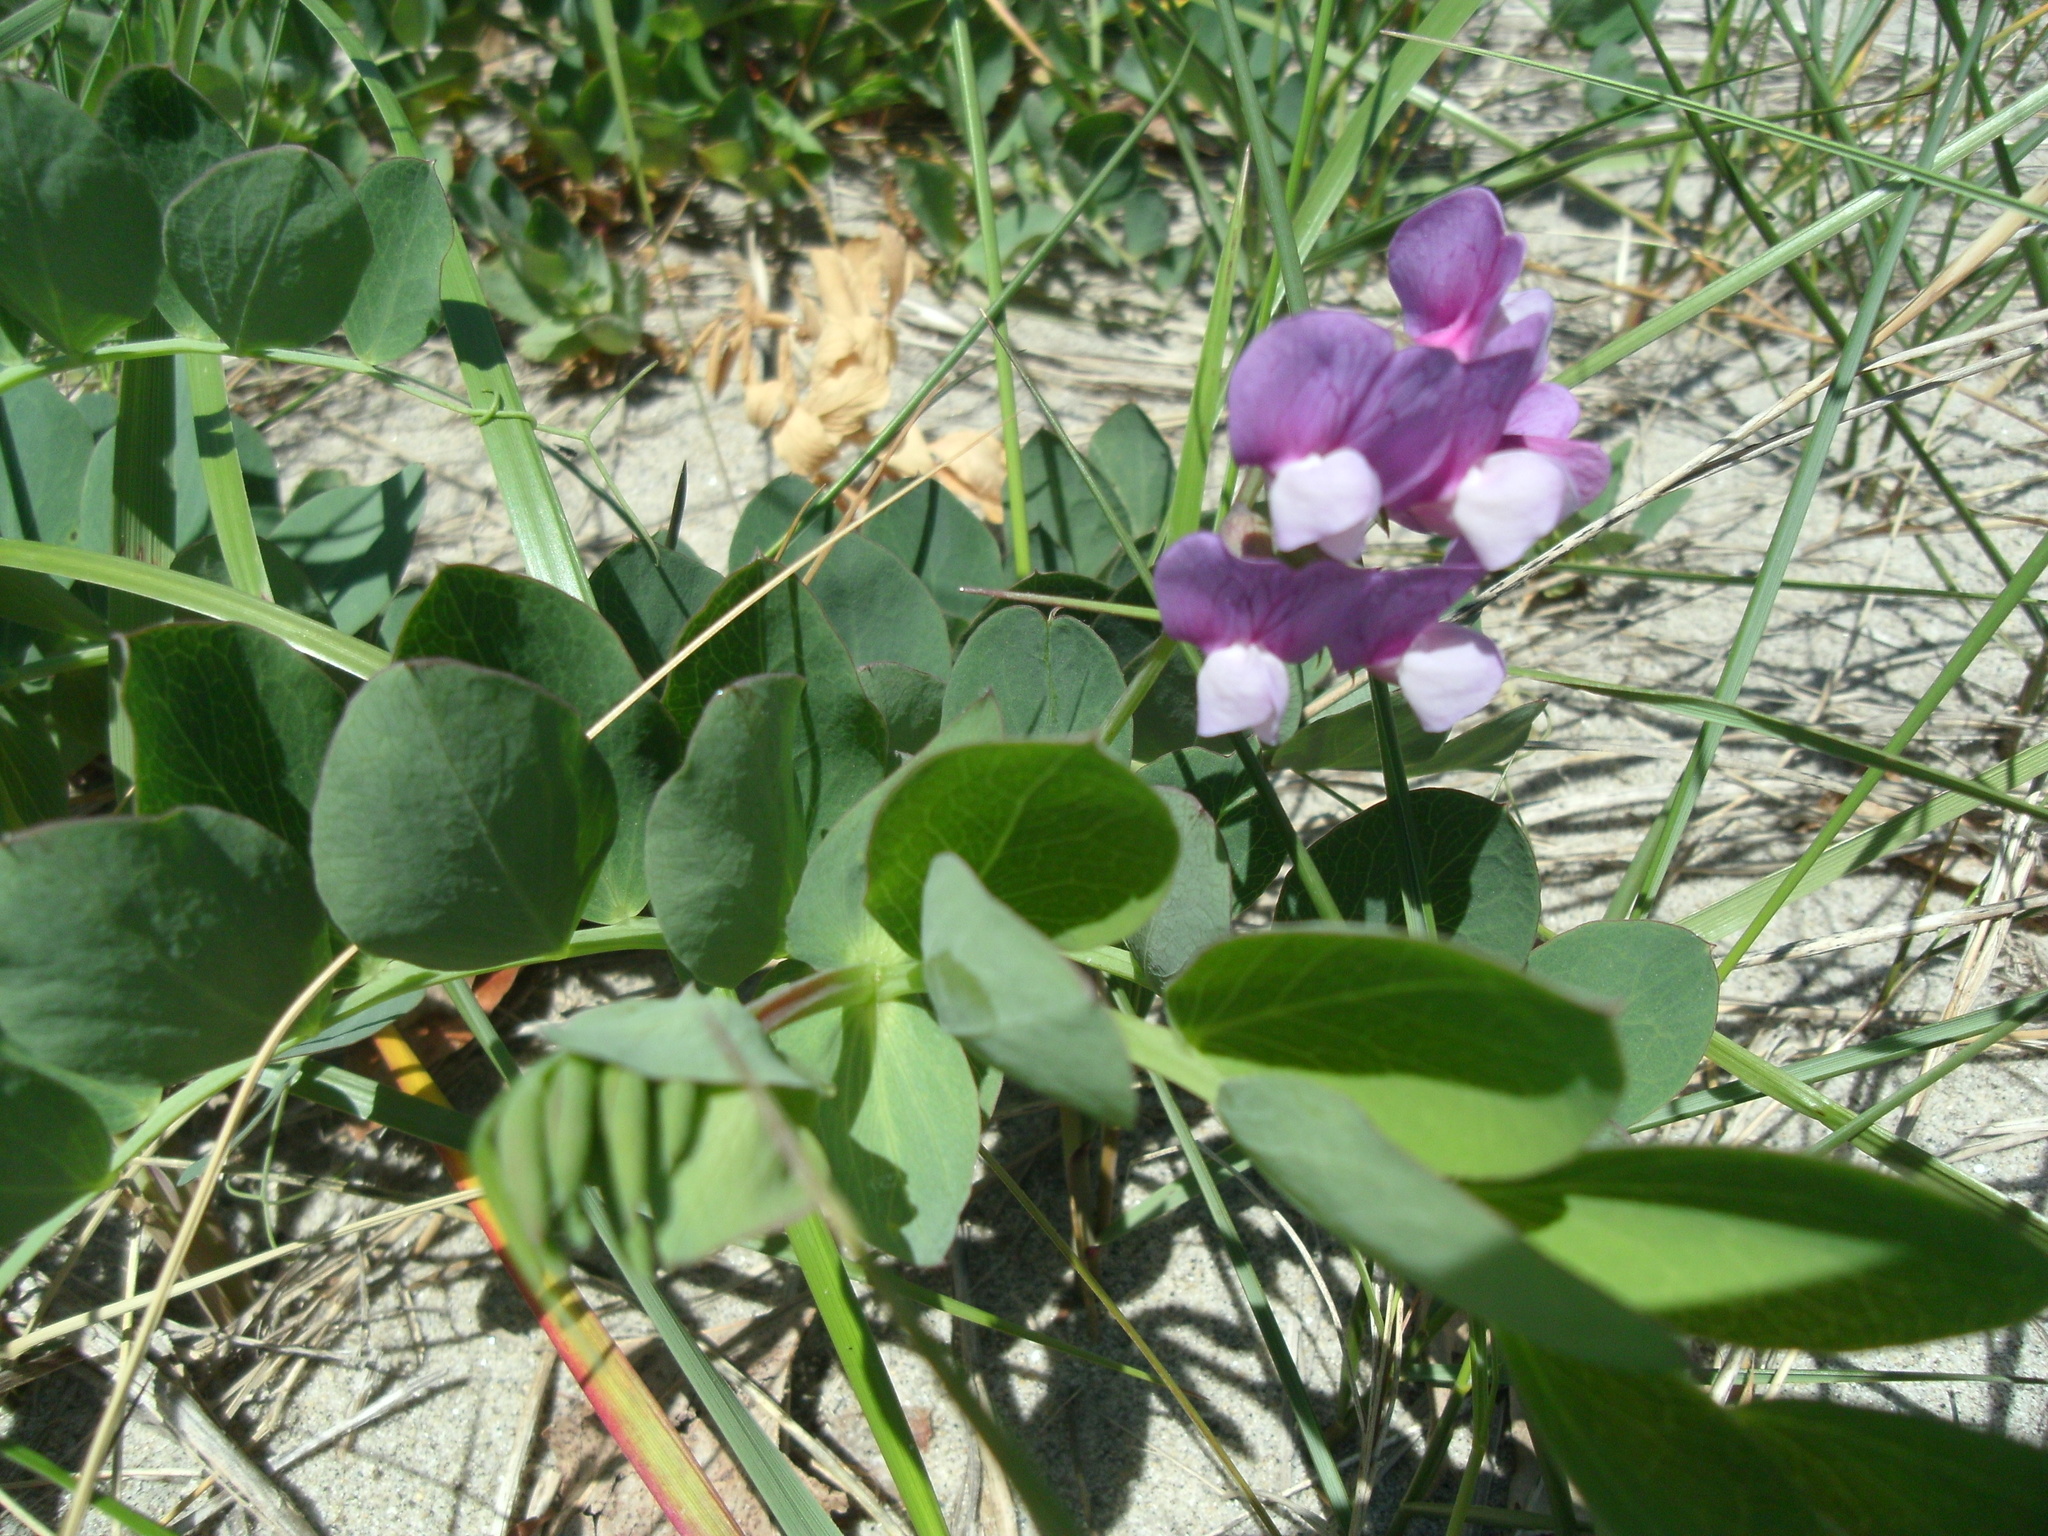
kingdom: Plantae
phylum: Tracheophyta
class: Magnoliopsida
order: Fabales
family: Fabaceae
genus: Lathyrus
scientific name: Lathyrus japonicus
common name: Sea pea
